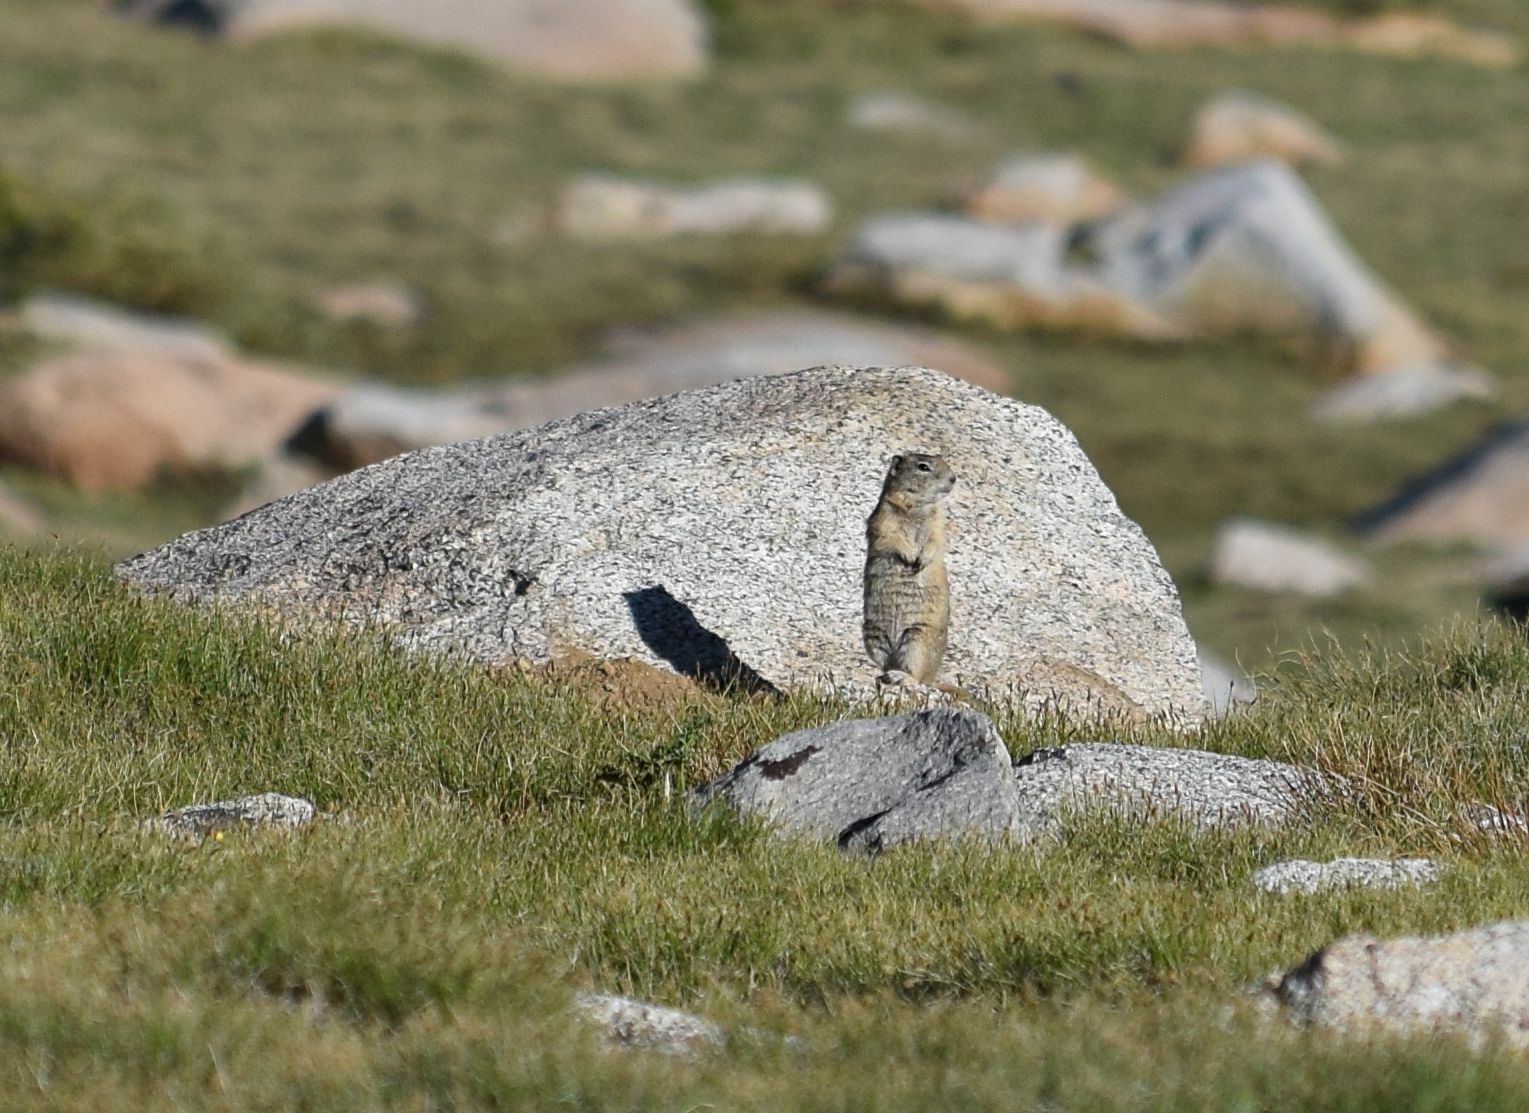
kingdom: Animalia
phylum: Chordata
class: Mammalia
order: Rodentia
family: Sciuridae
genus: Urocitellus
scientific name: Urocitellus beldingi
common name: Belding's ground squirrel
